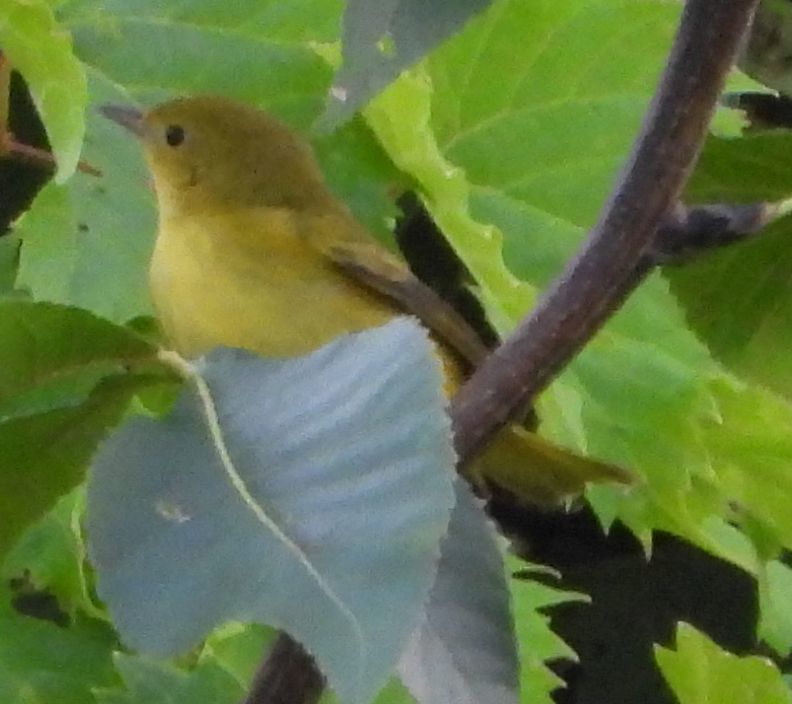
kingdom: Animalia
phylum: Chordata
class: Aves
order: Passeriformes
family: Parulidae
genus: Setophaga
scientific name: Setophaga petechia
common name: Yellow warbler
